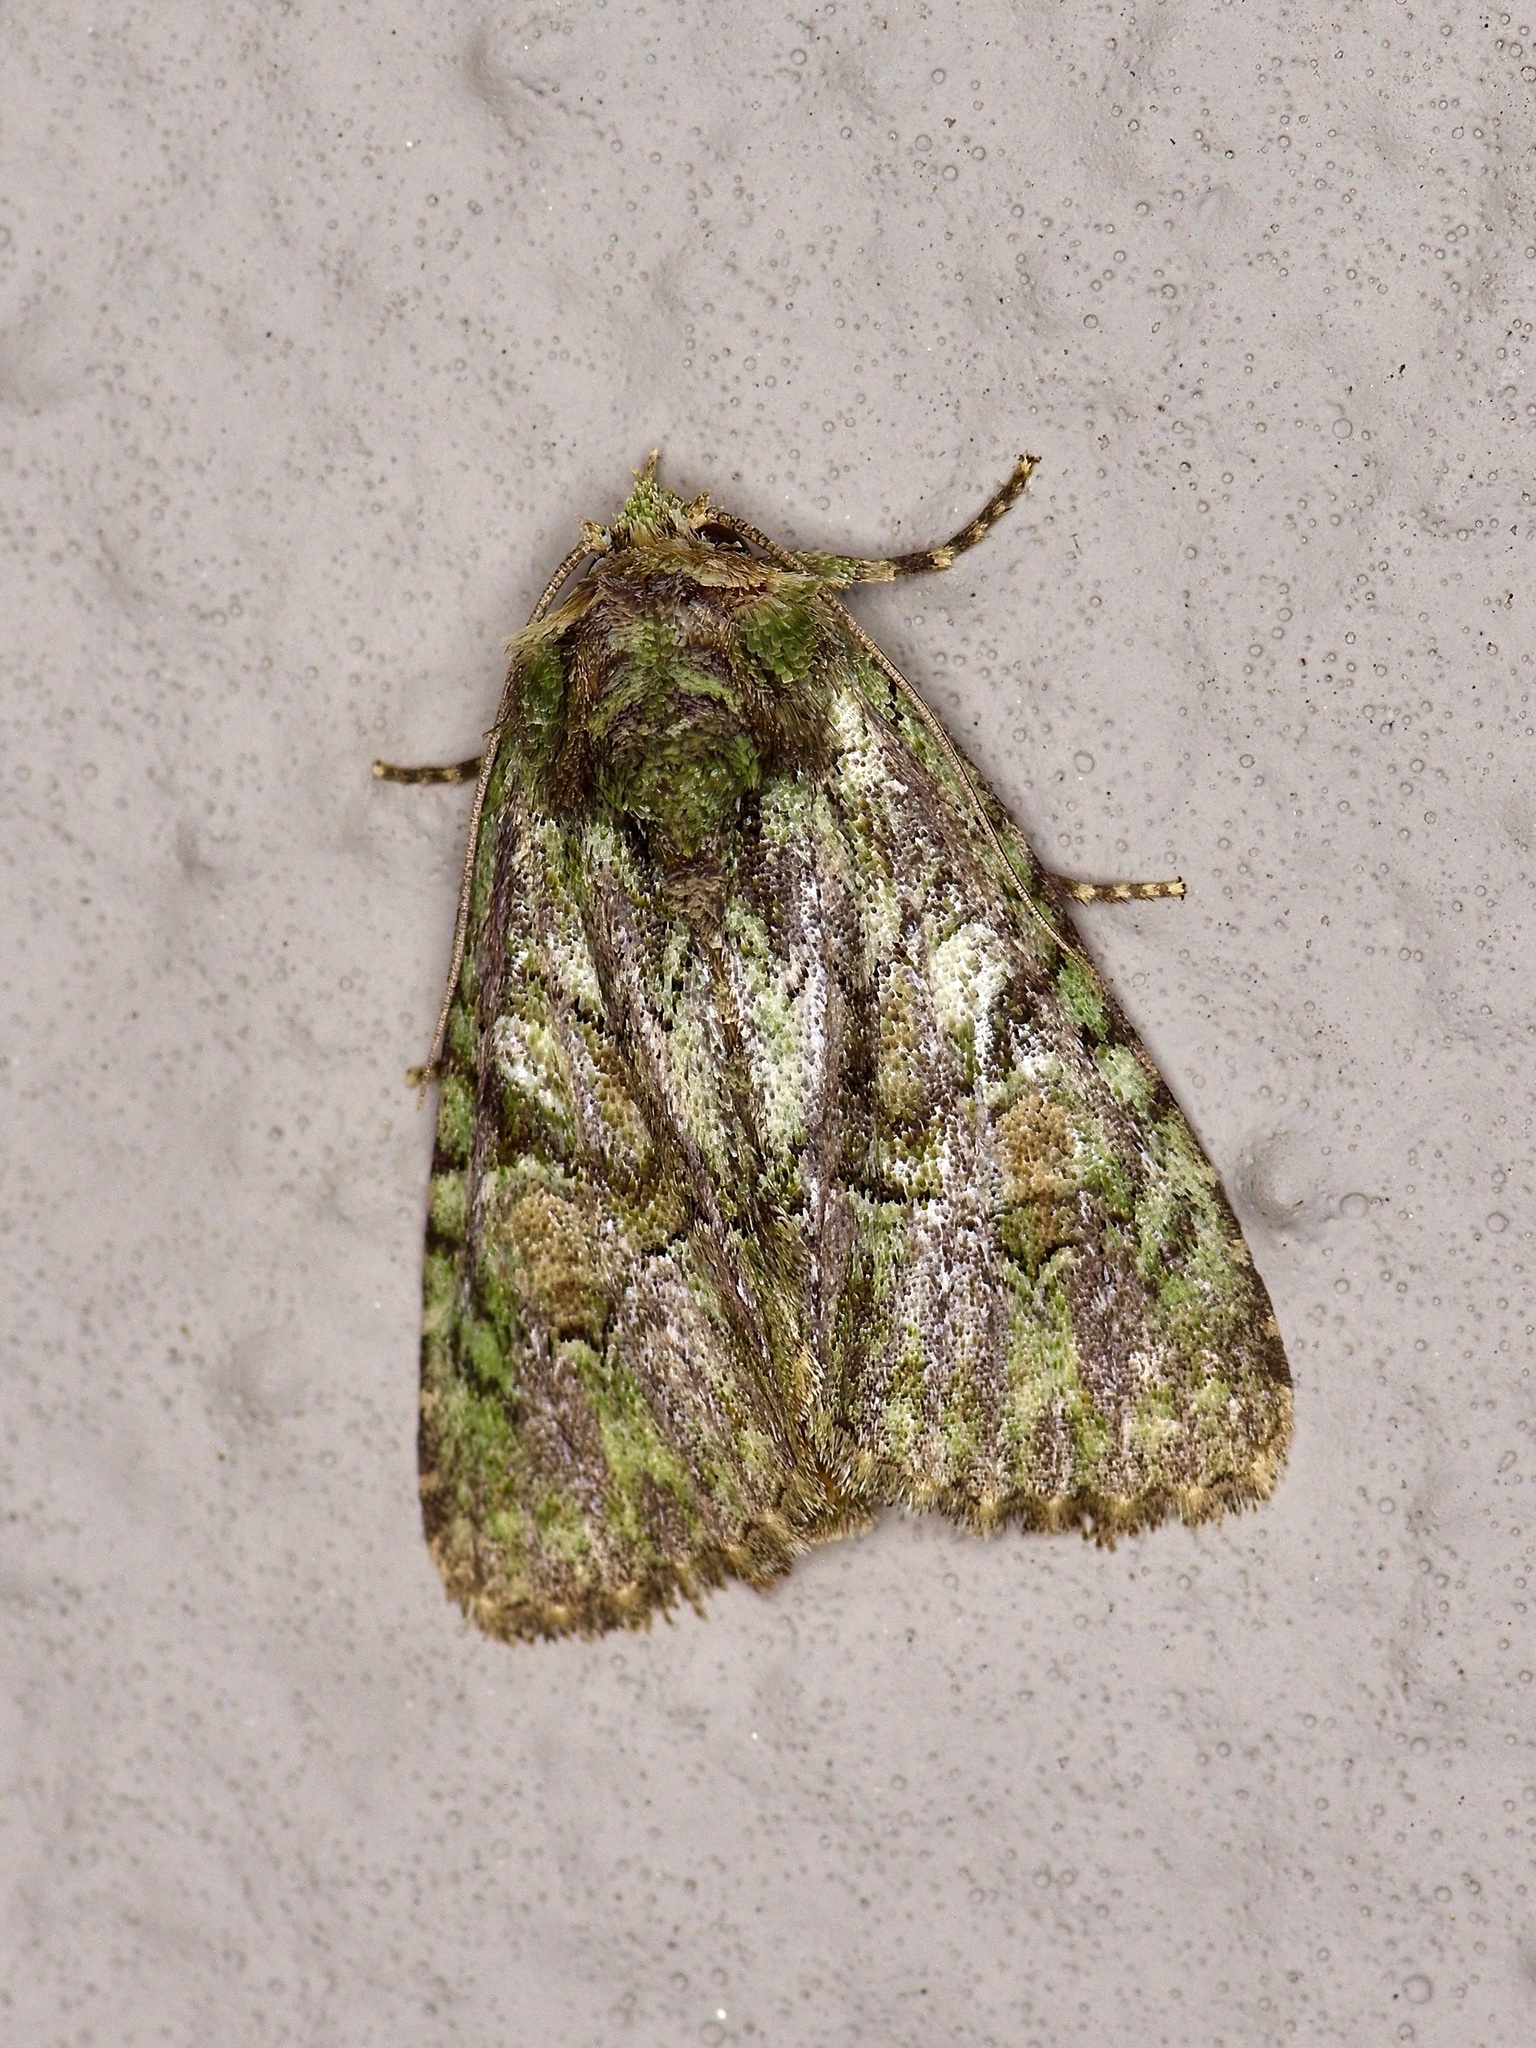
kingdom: Animalia
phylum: Arthropoda
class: Insecta
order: Lepidoptera
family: Noctuidae
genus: Phosphila
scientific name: Phosphila miselioides
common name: Spotted phosphila moth
